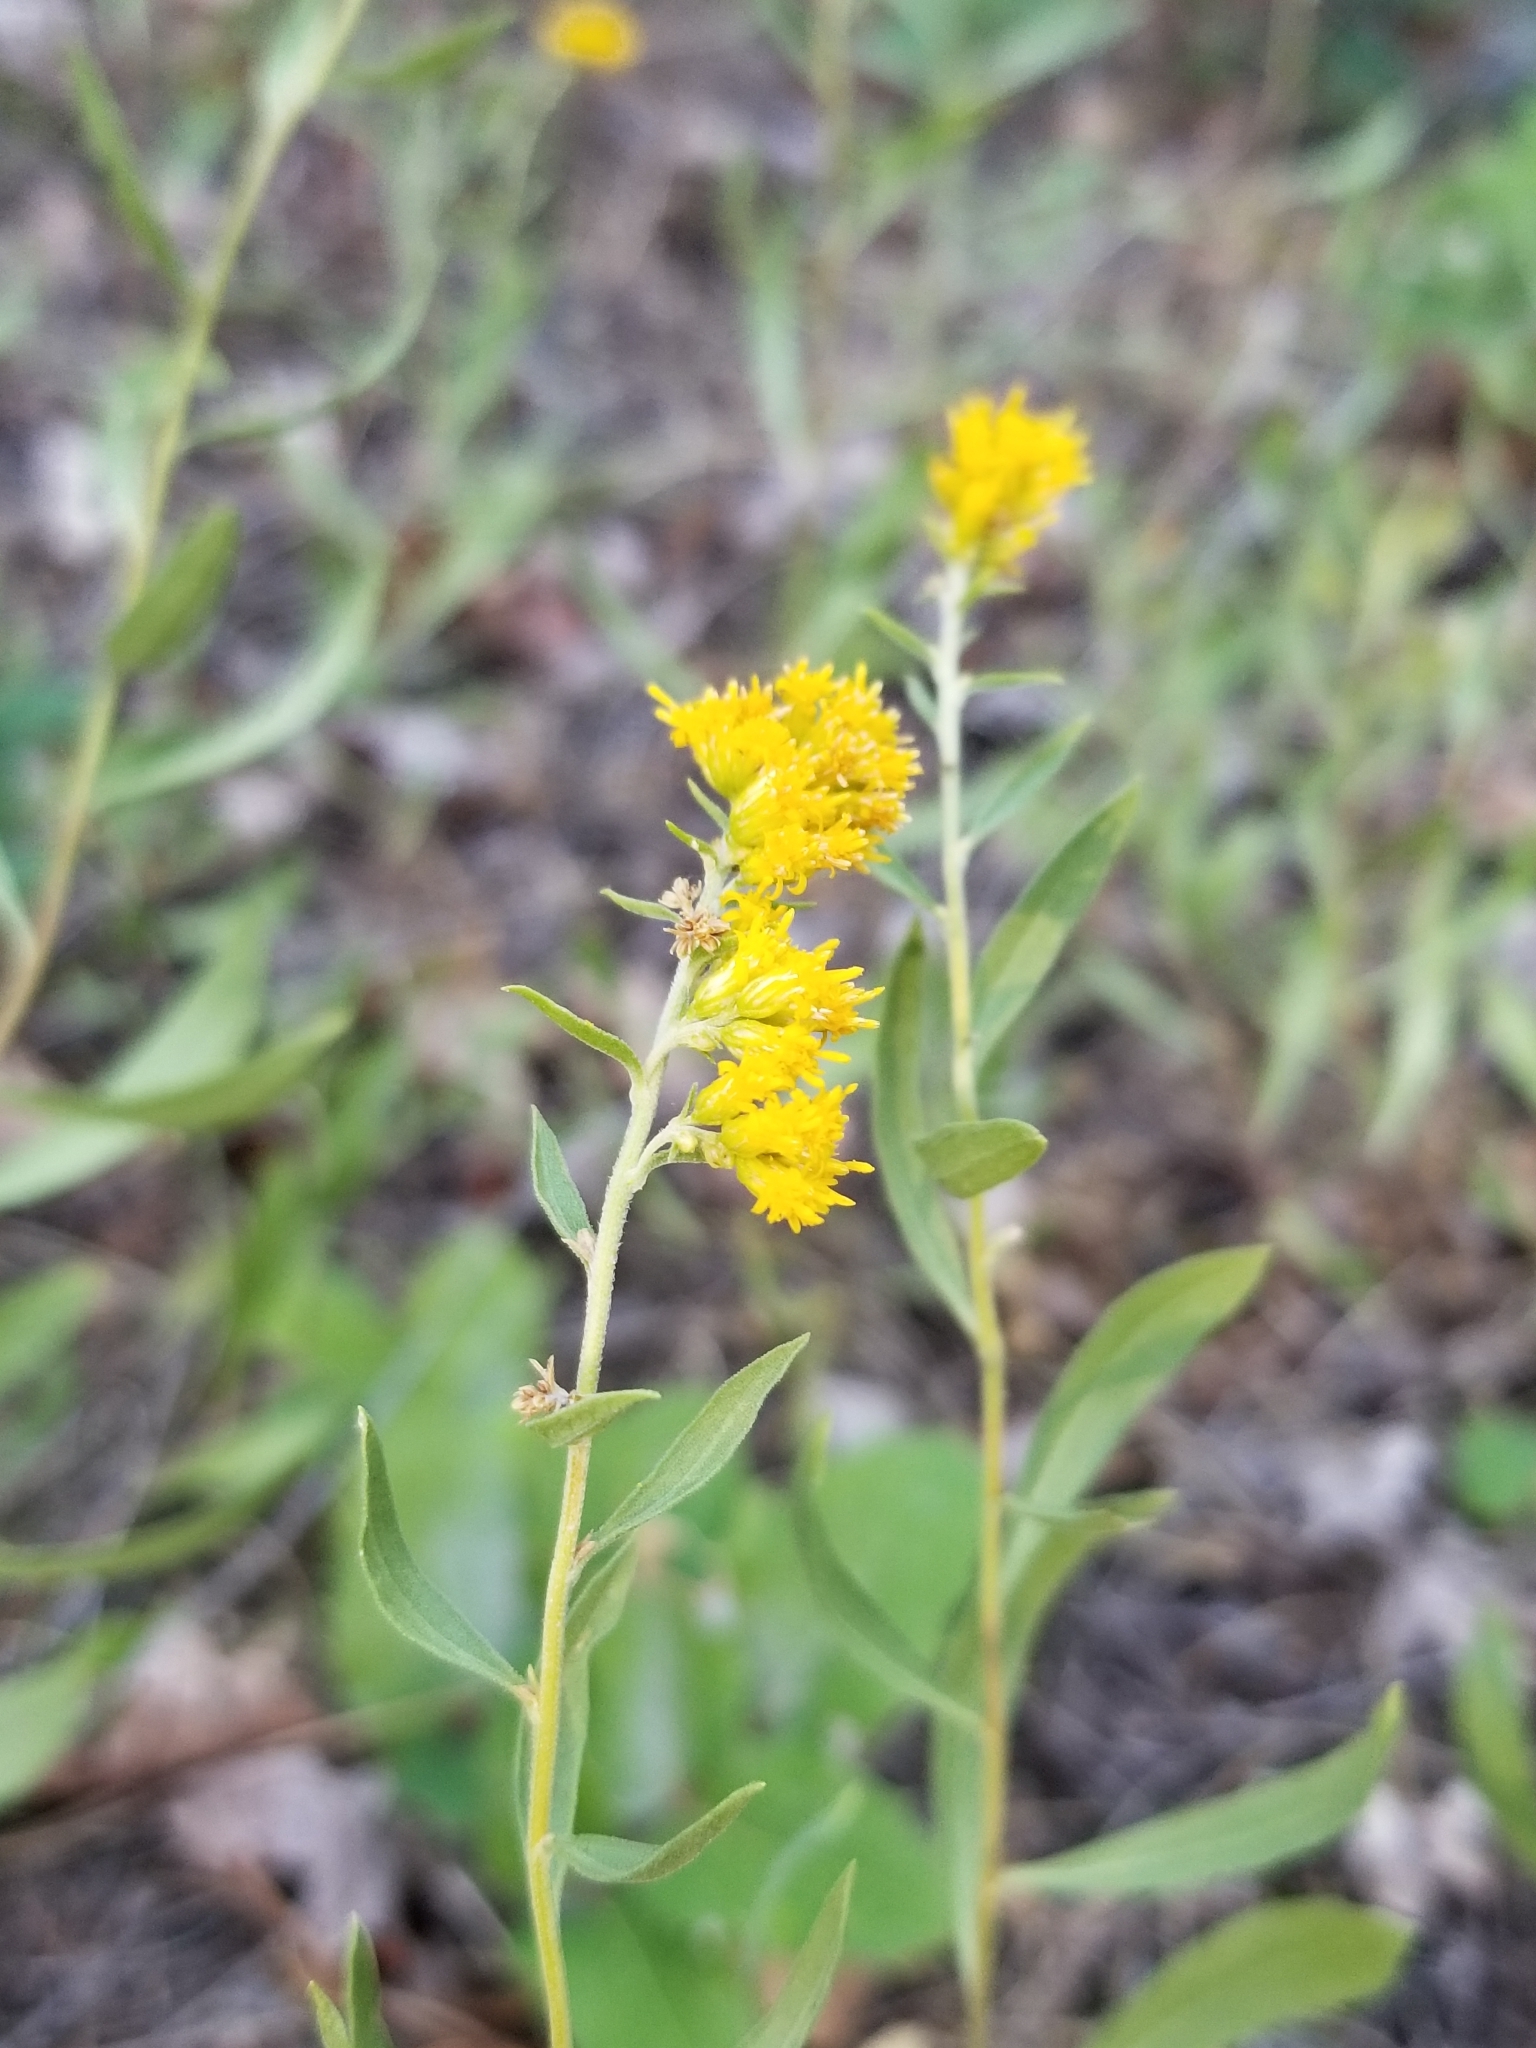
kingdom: Plantae
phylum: Tracheophyta
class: Magnoliopsida
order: Asterales
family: Asteraceae
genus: Solidago
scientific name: Solidago velutina
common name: Three-nerve goldenrod
